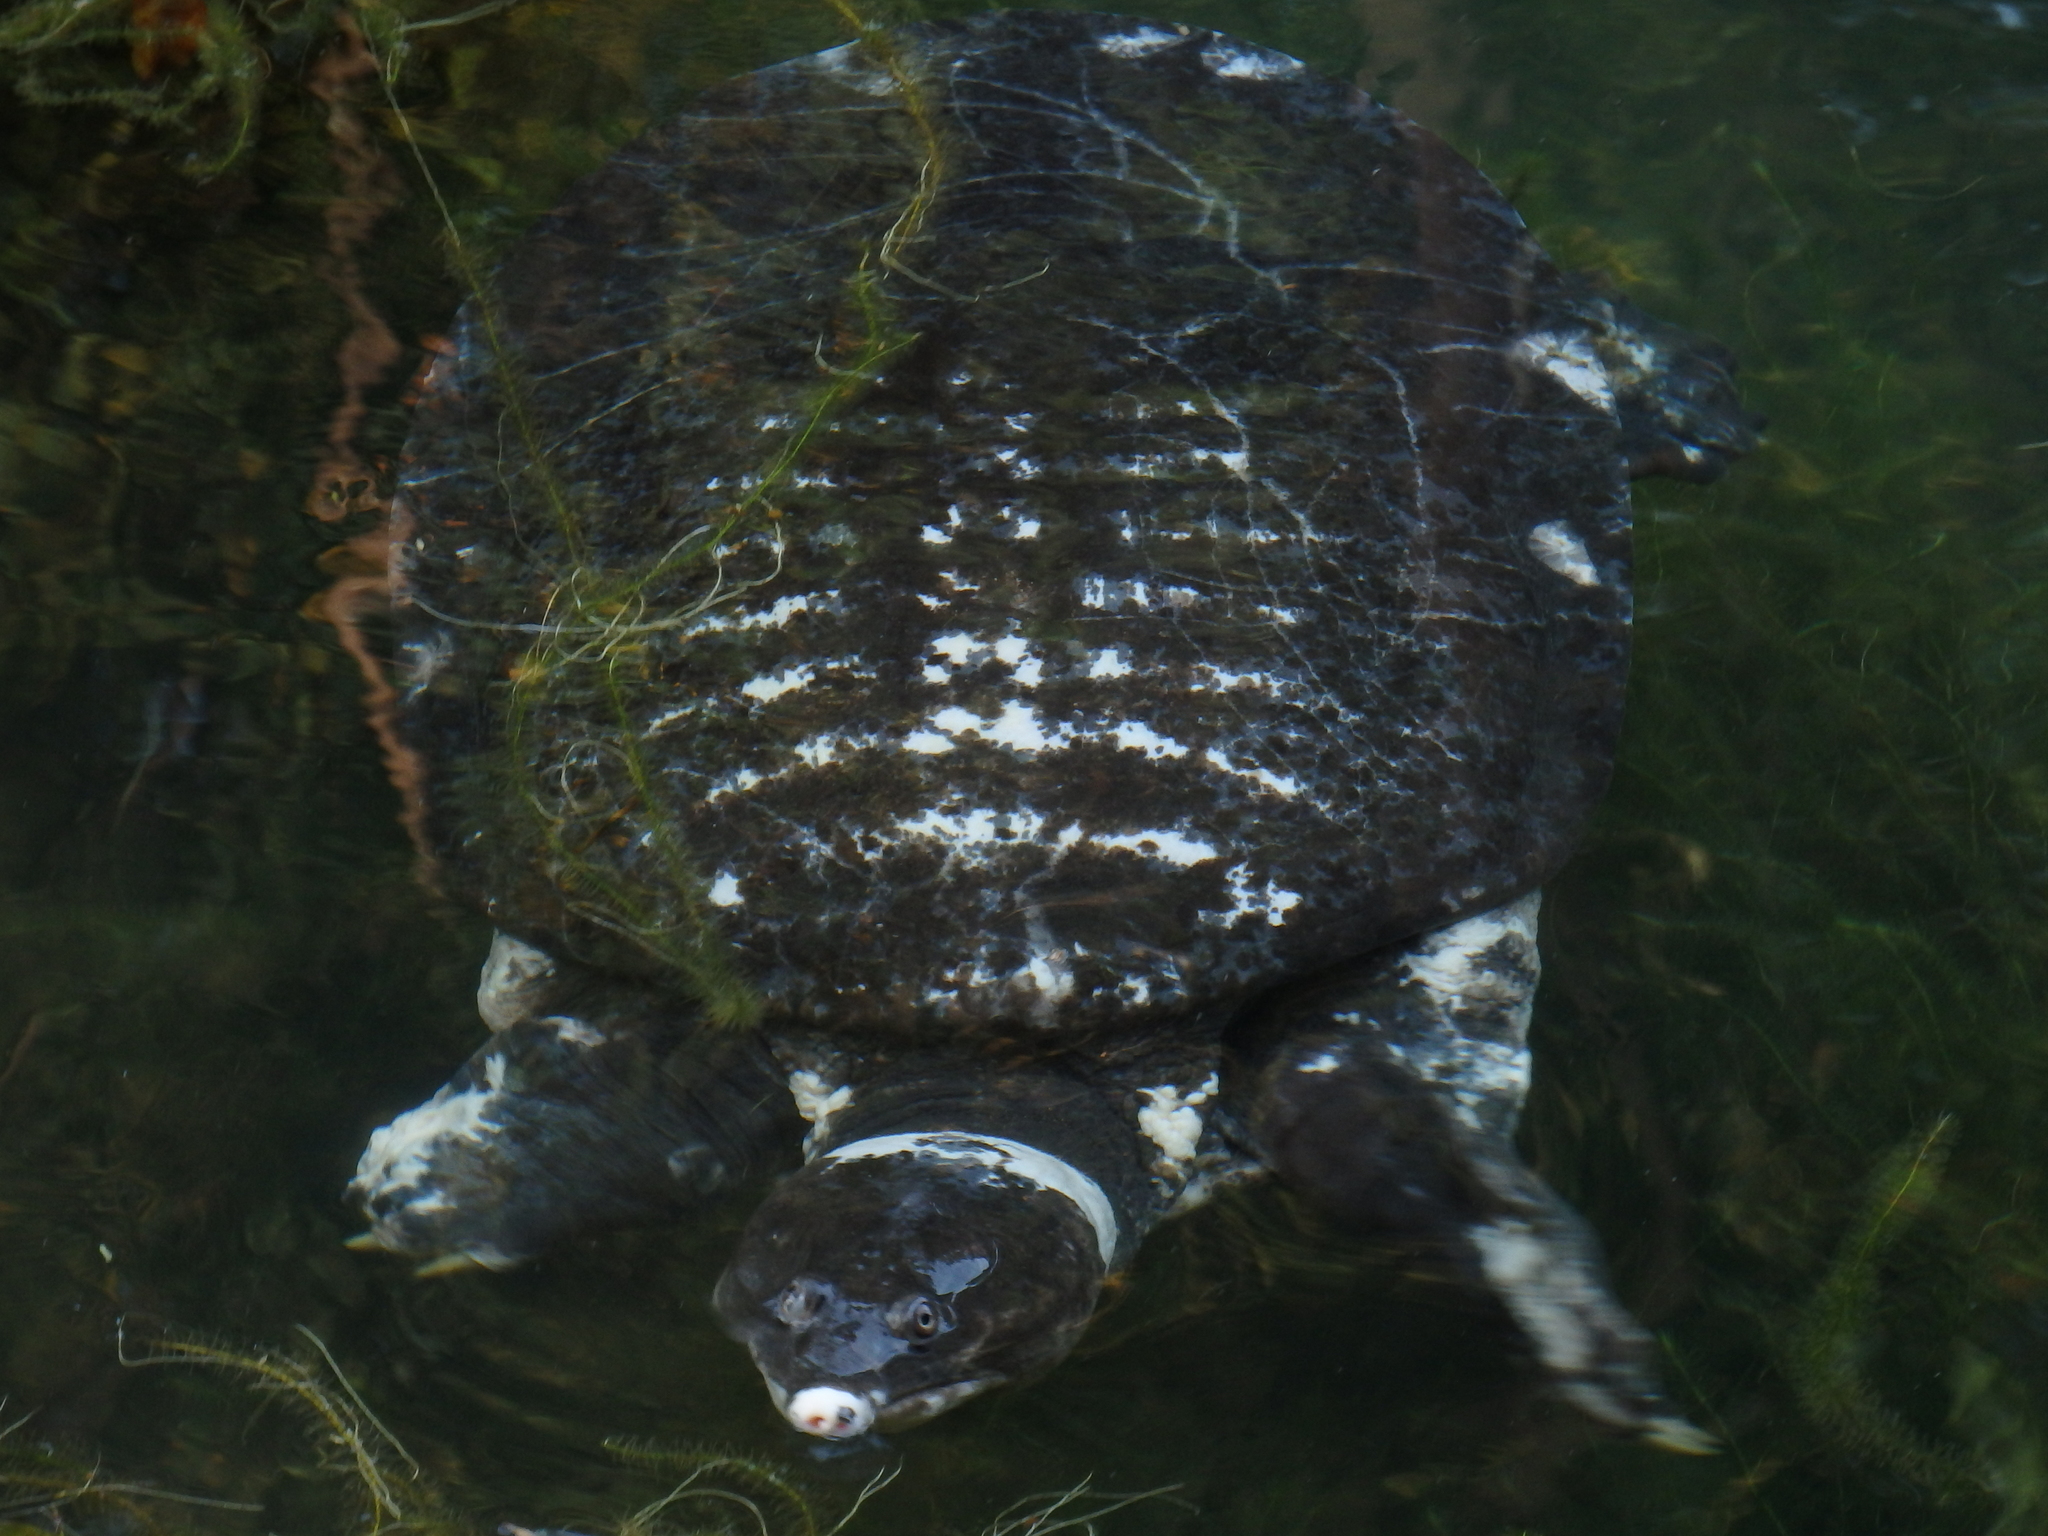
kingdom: Animalia
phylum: Chordata
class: Testudines
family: Trionychidae
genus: Amyda
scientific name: Amyda cartilaginea
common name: Asiatic softshell turtle
